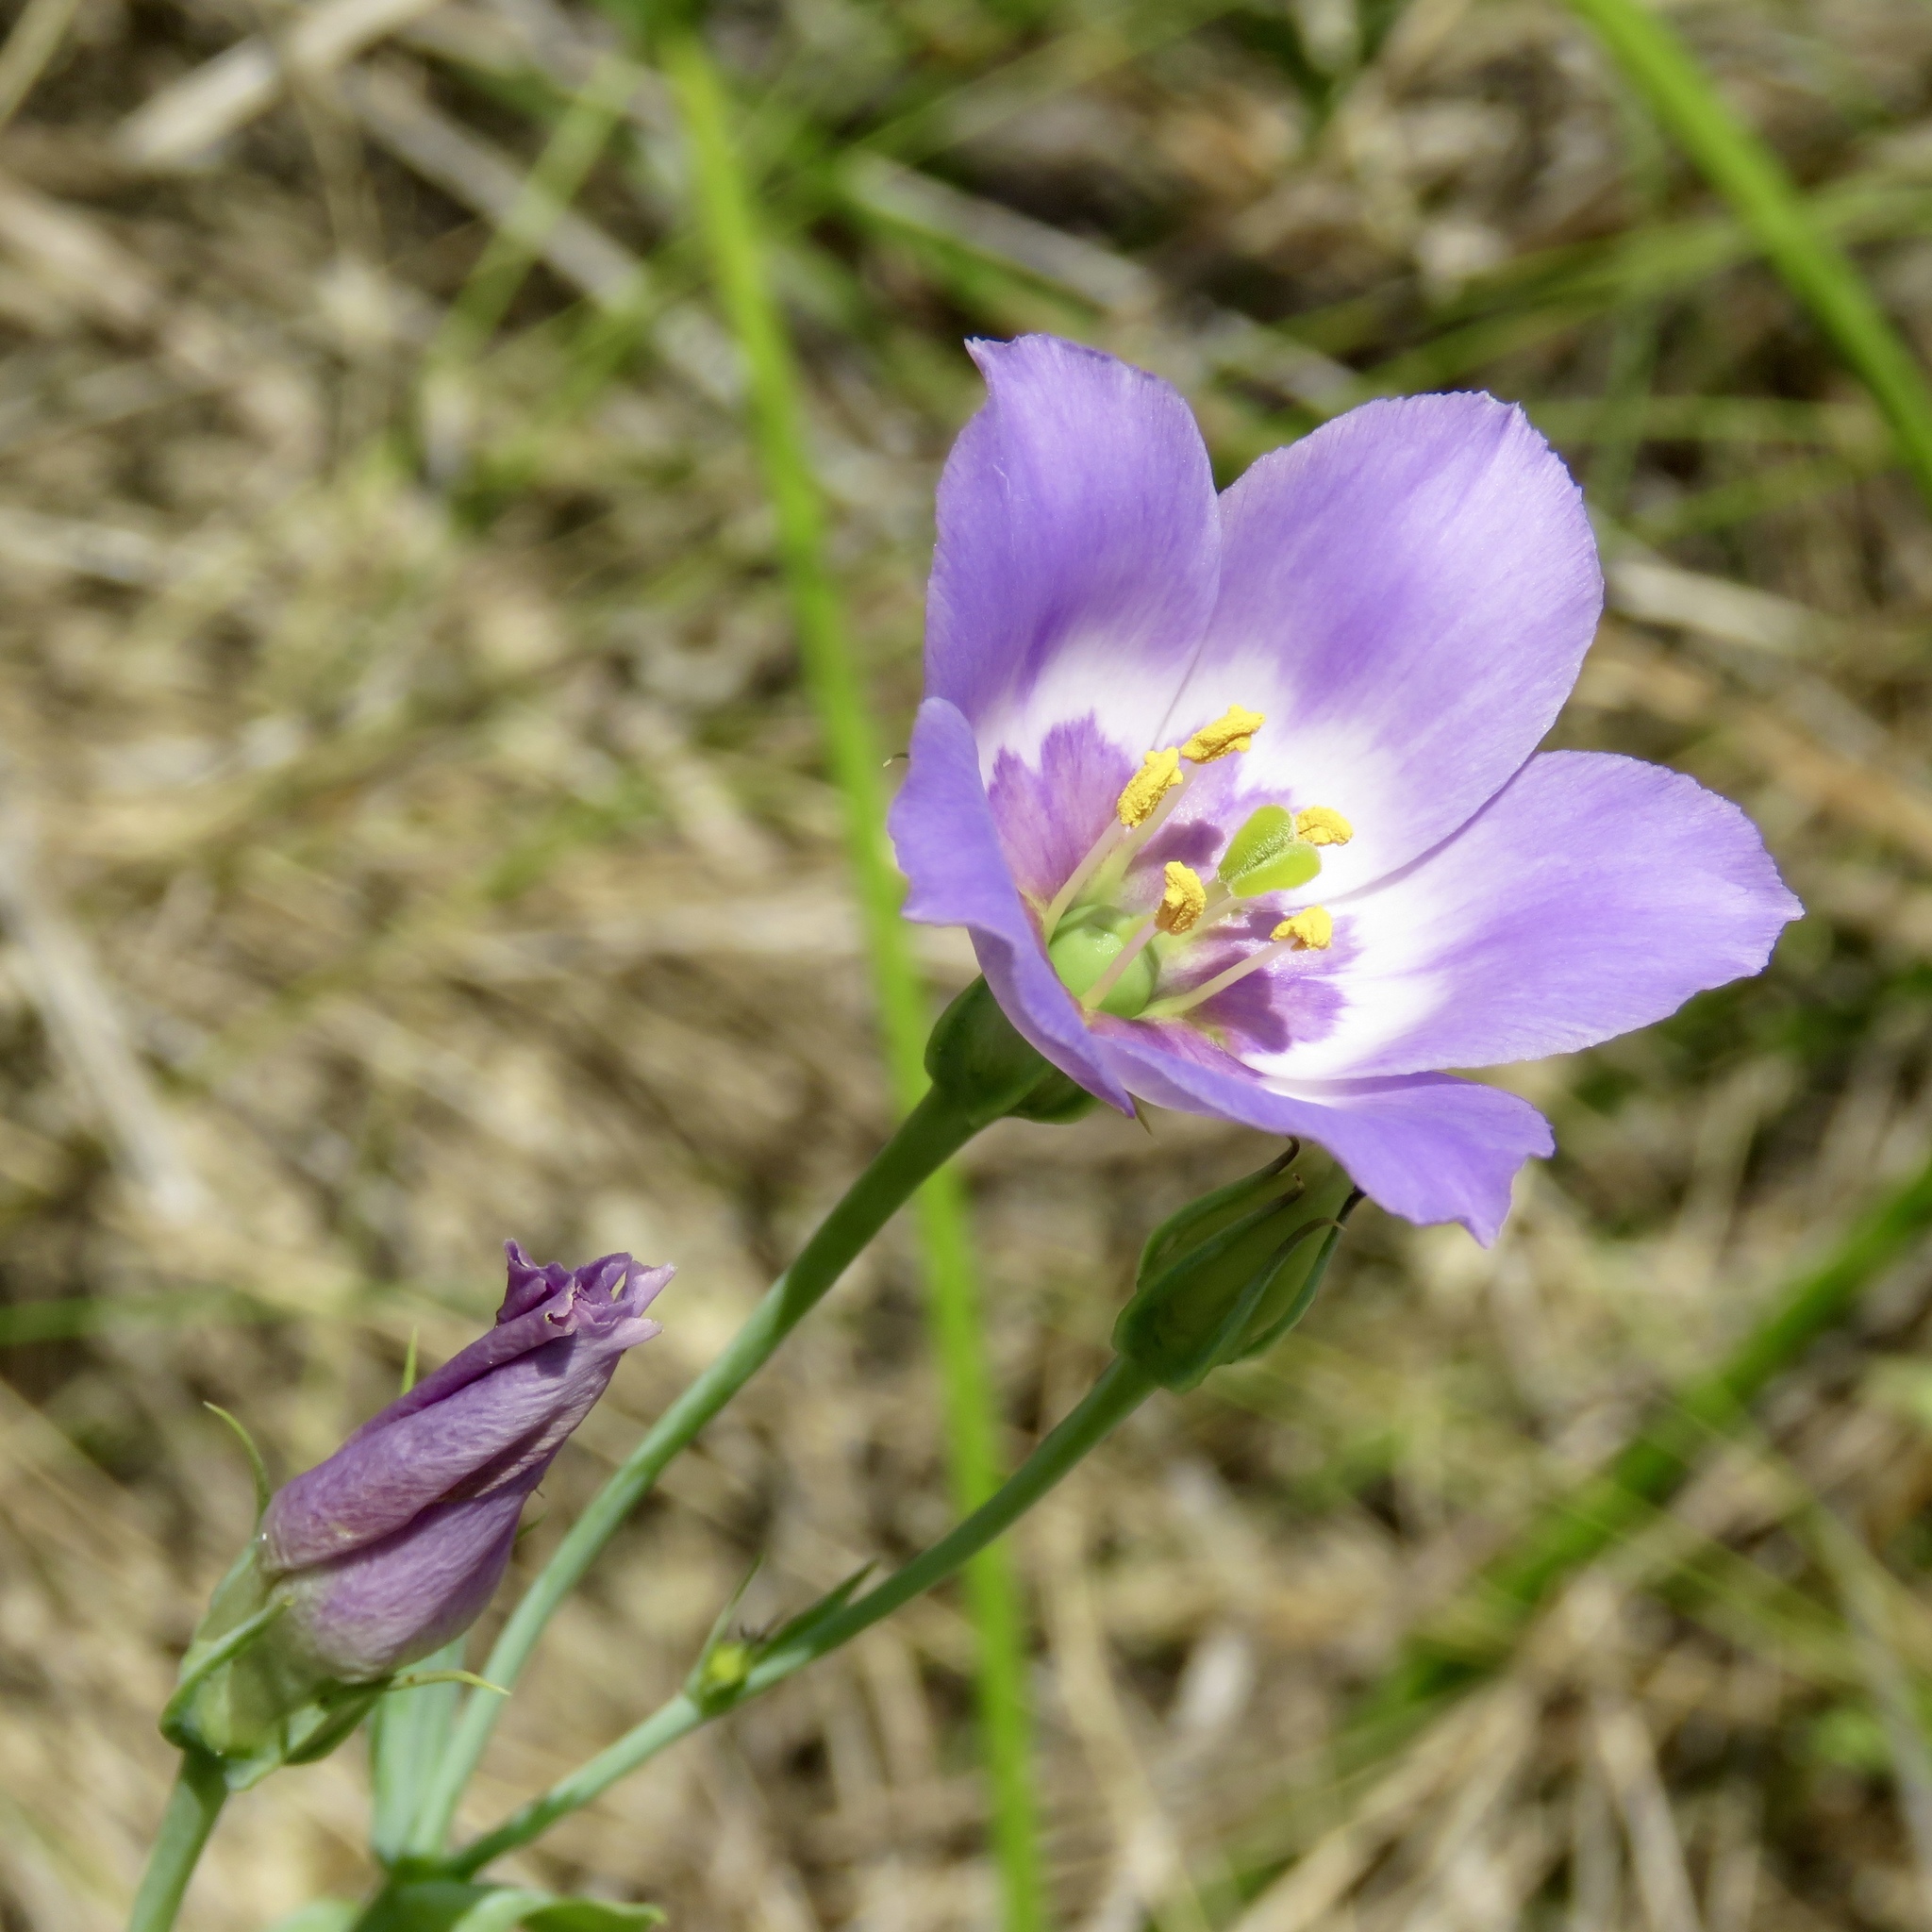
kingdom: Plantae
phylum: Tracheophyta
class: Magnoliopsida
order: Gentianales
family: Gentianaceae
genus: Eustoma
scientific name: Eustoma exaltatum
